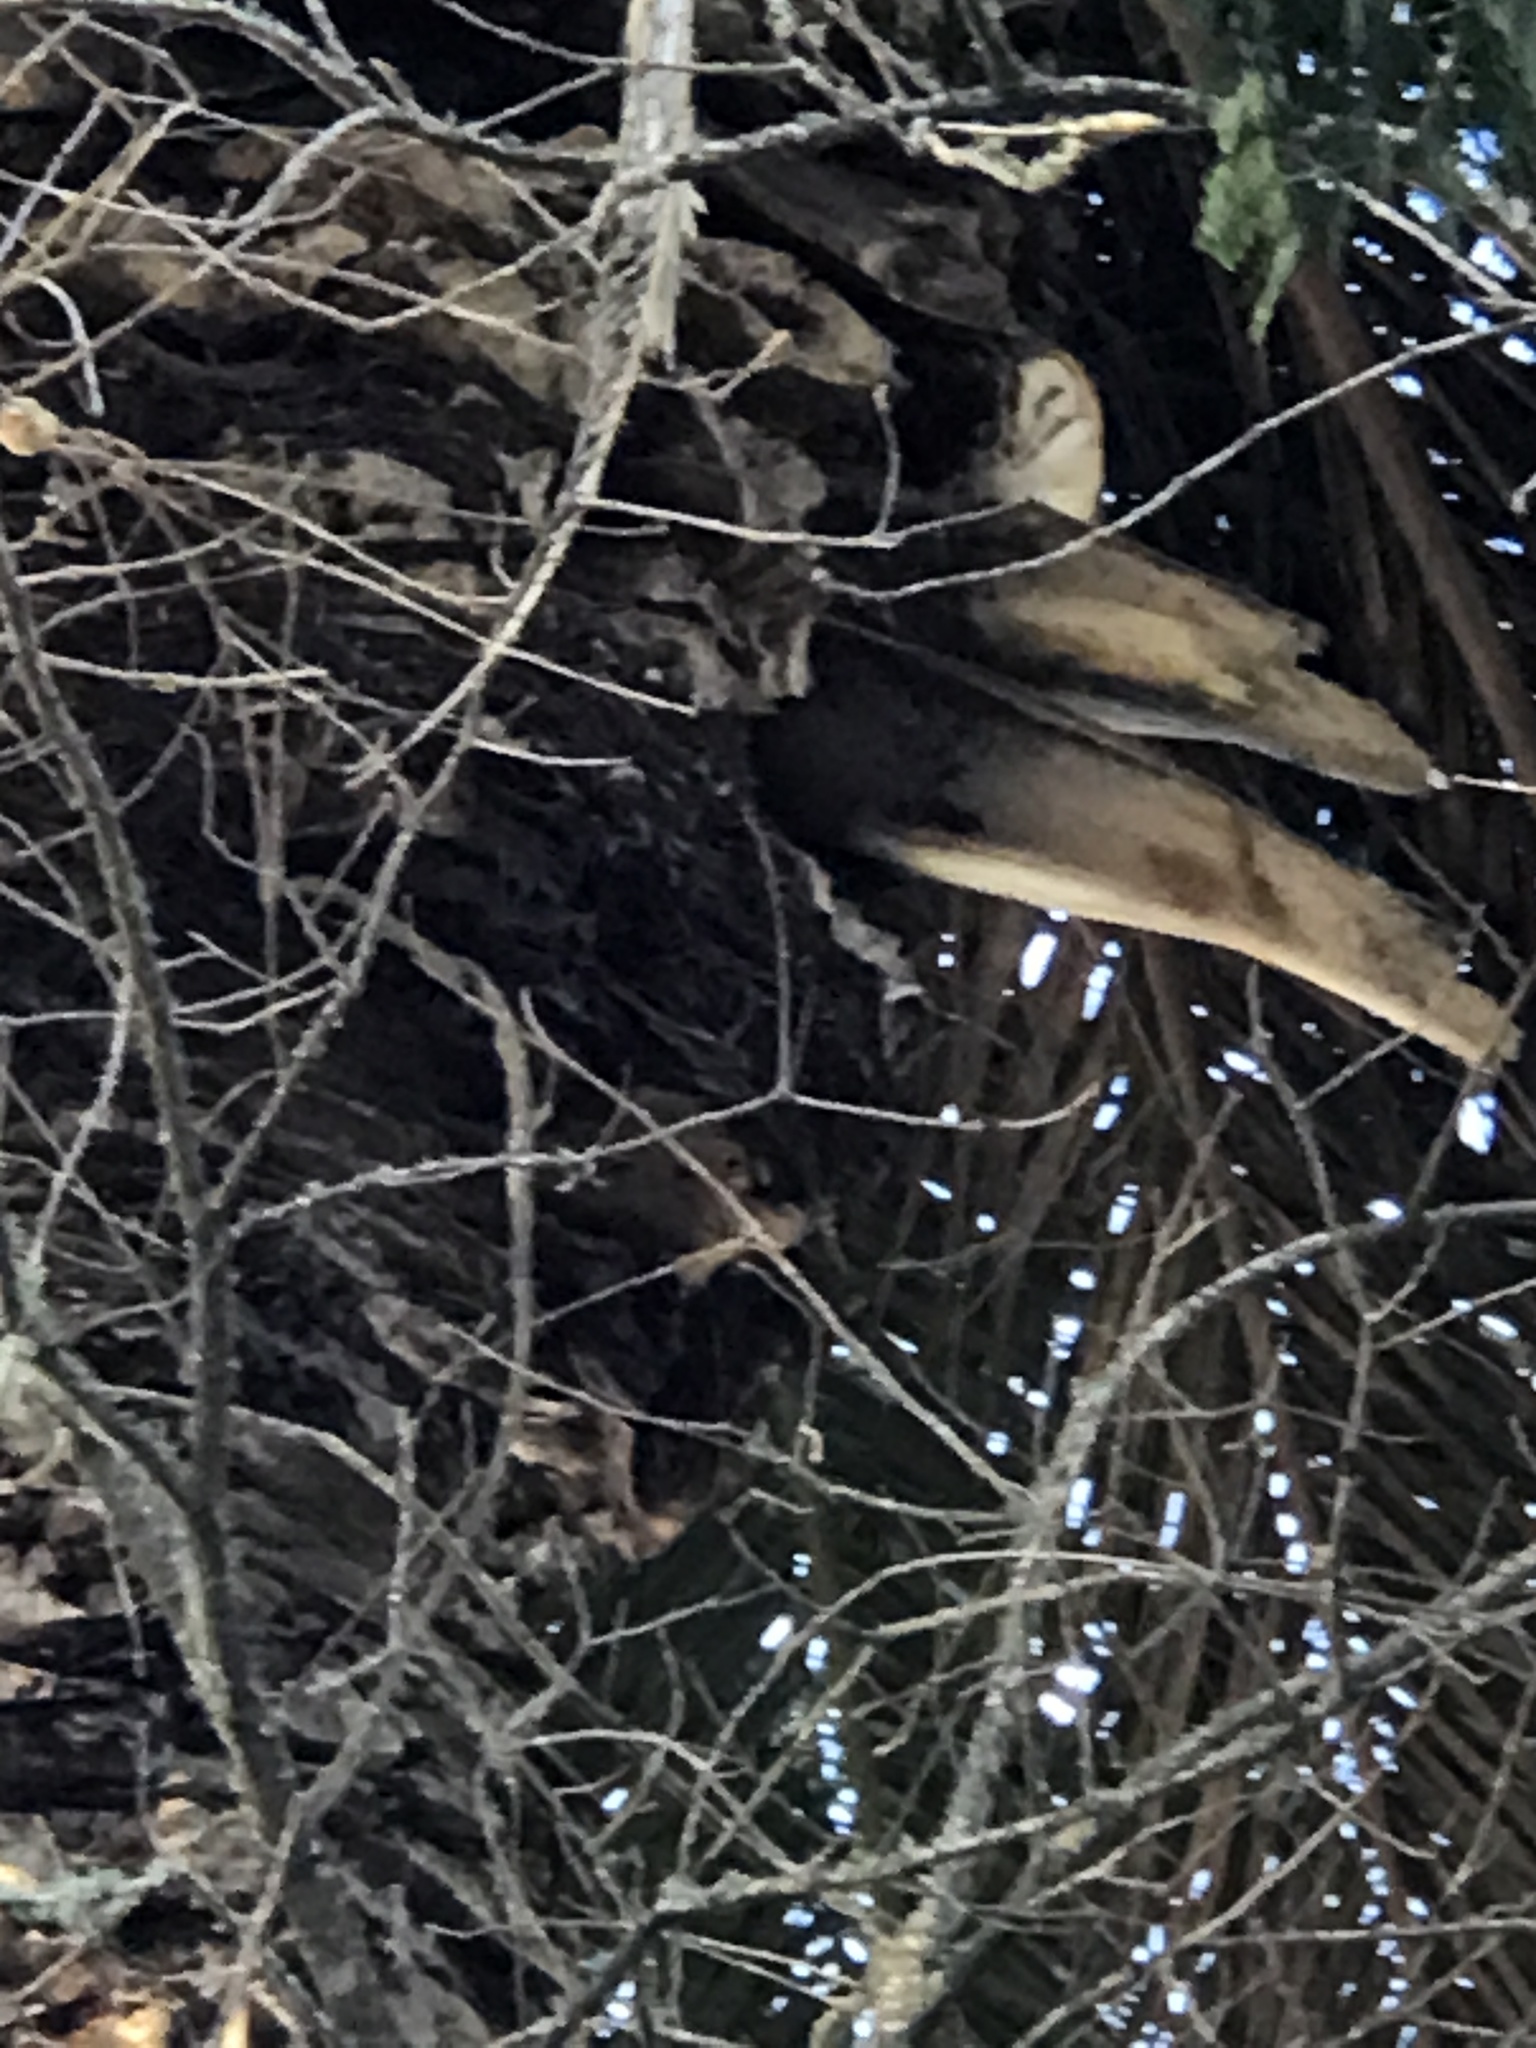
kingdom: Animalia
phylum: Chordata
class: Aves
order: Strigiformes
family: Tytonidae
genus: Tyto
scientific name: Tyto alba
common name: Barn owl
